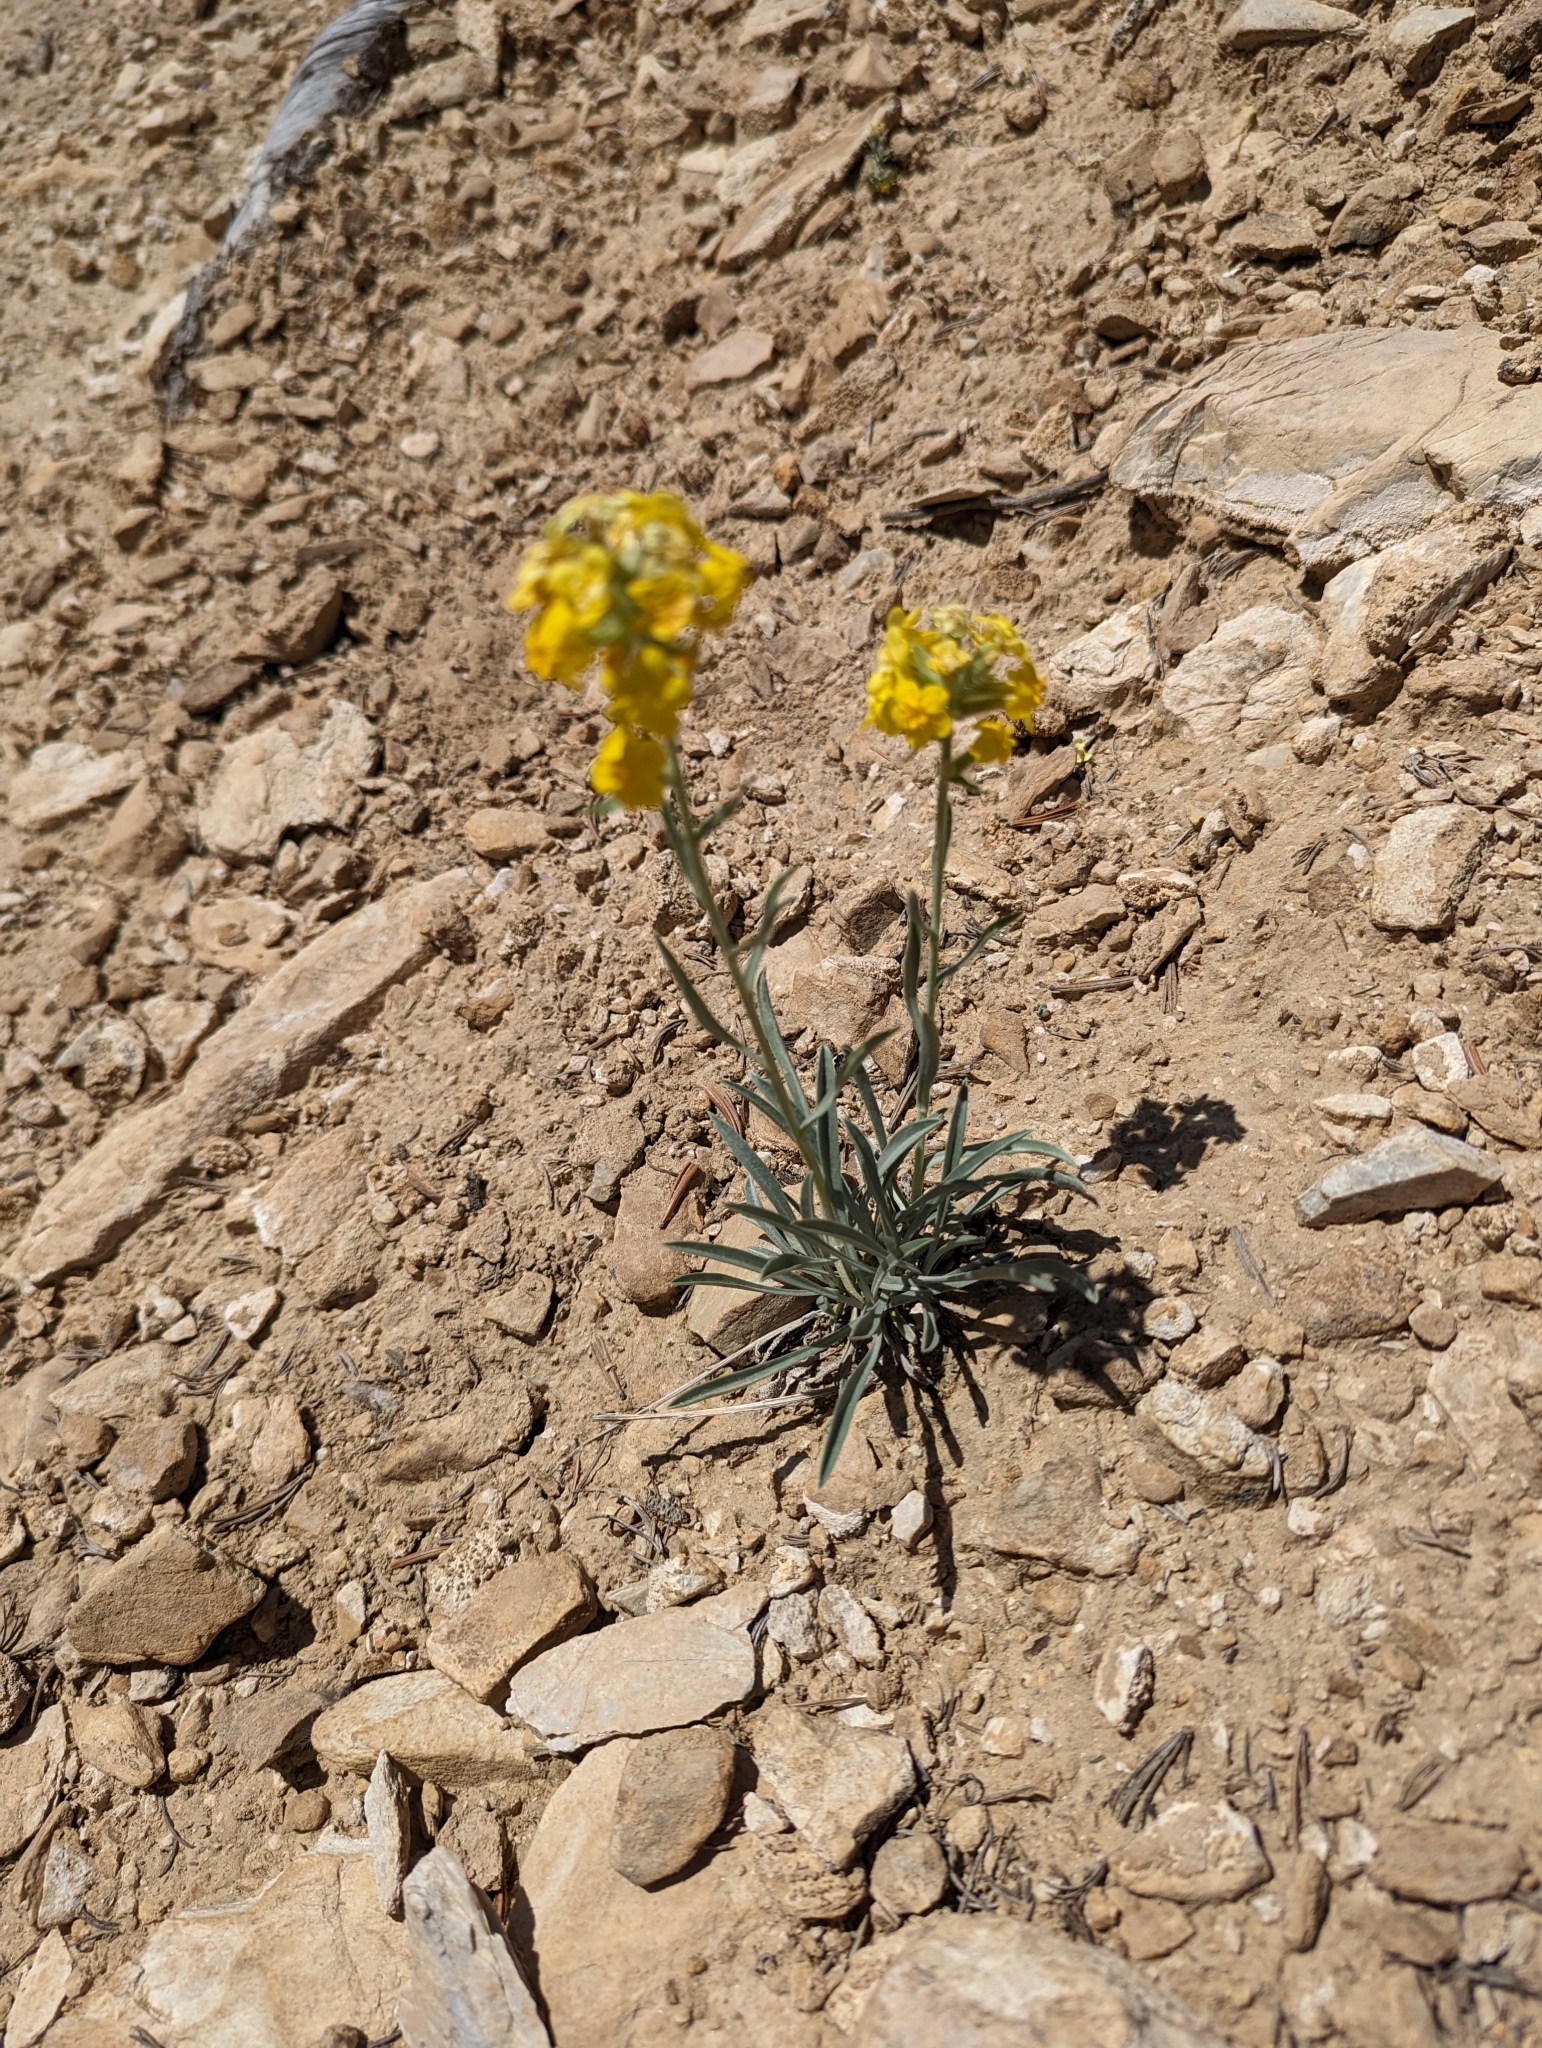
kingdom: Plantae
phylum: Tracheophyta
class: Magnoliopsida
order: Boraginales
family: Boraginaceae
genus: Oreocarya
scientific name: Oreocarya confertiflora
